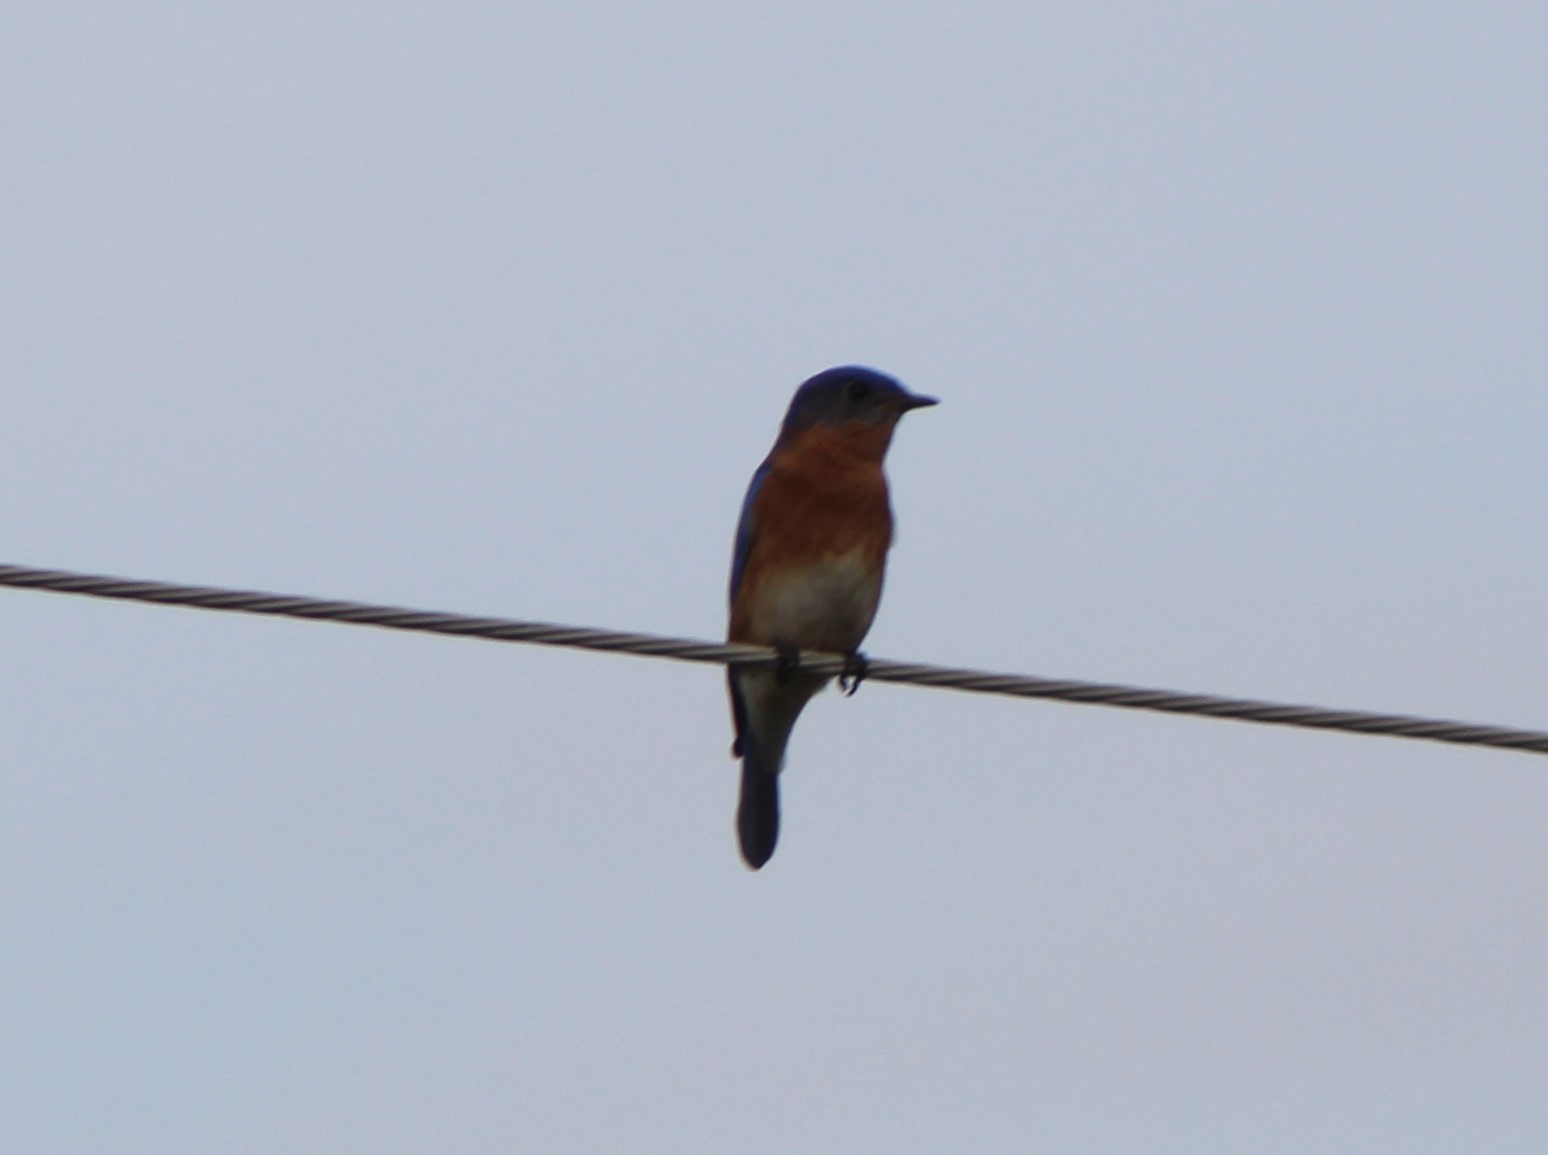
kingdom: Animalia
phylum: Chordata
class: Aves
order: Passeriformes
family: Turdidae
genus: Sialia
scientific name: Sialia sialis
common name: Eastern bluebird
